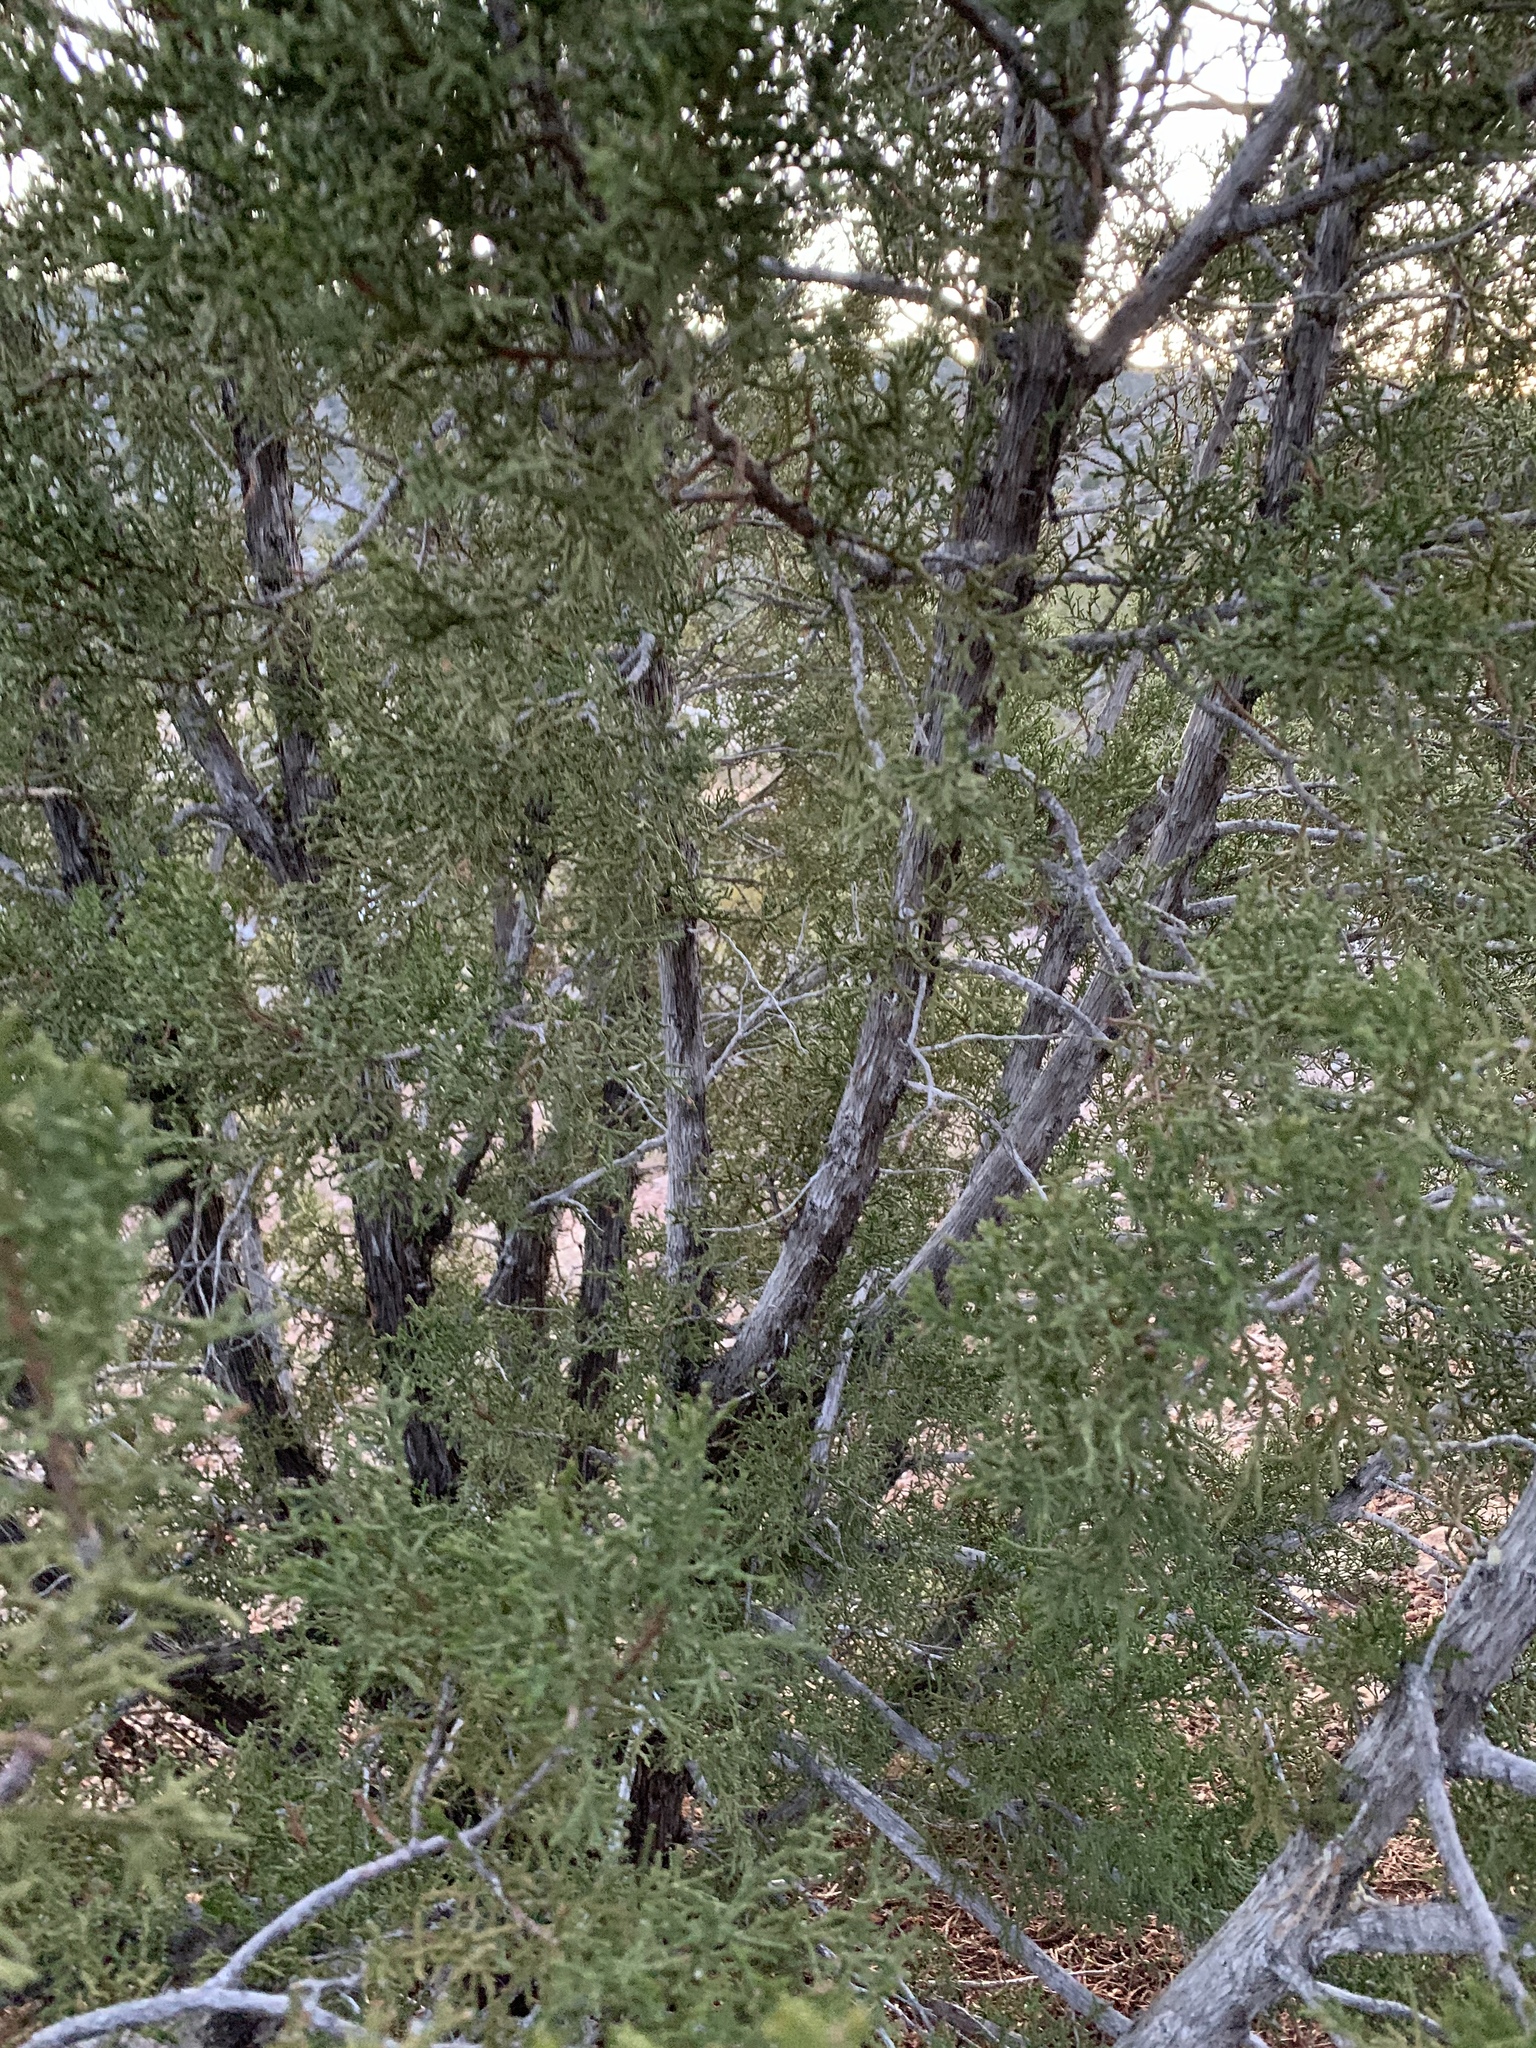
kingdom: Plantae
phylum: Tracheophyta
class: Pinopsida
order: Pinales
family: Cupressaceae
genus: Juniperus
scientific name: Juniperus monosperma
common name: One-seed juniper
